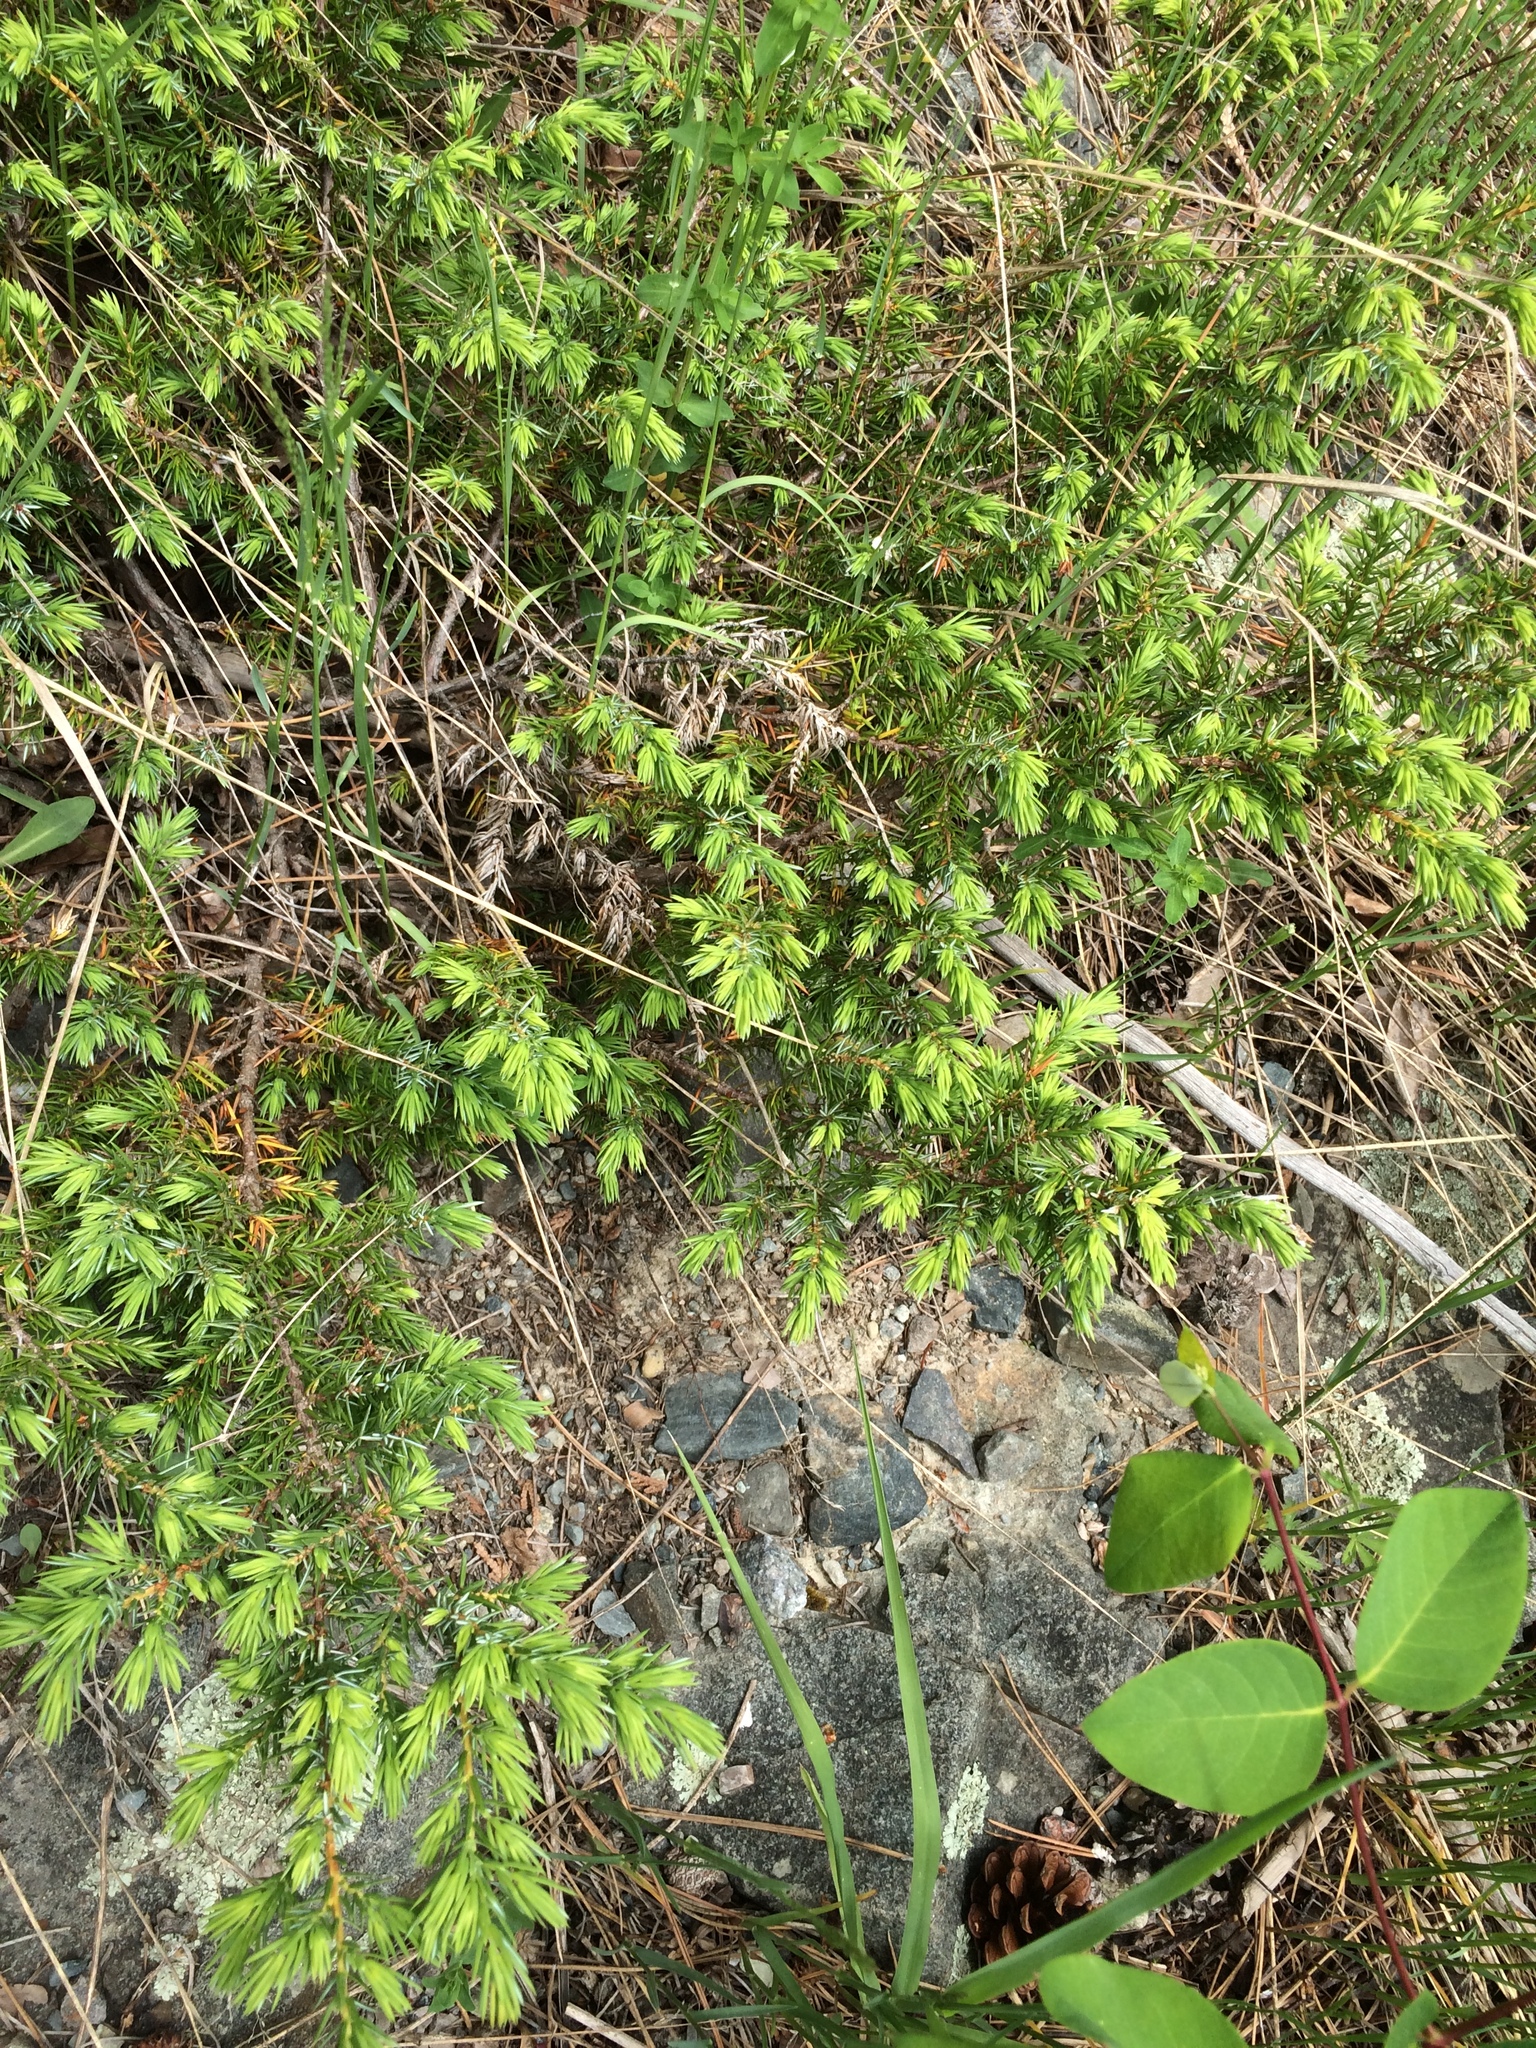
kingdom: Plantae
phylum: Tracheophyta
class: Pinopsida
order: Pinales
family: Cupressaceae
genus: Juniperus
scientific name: Juniperus communis
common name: Common juniper
